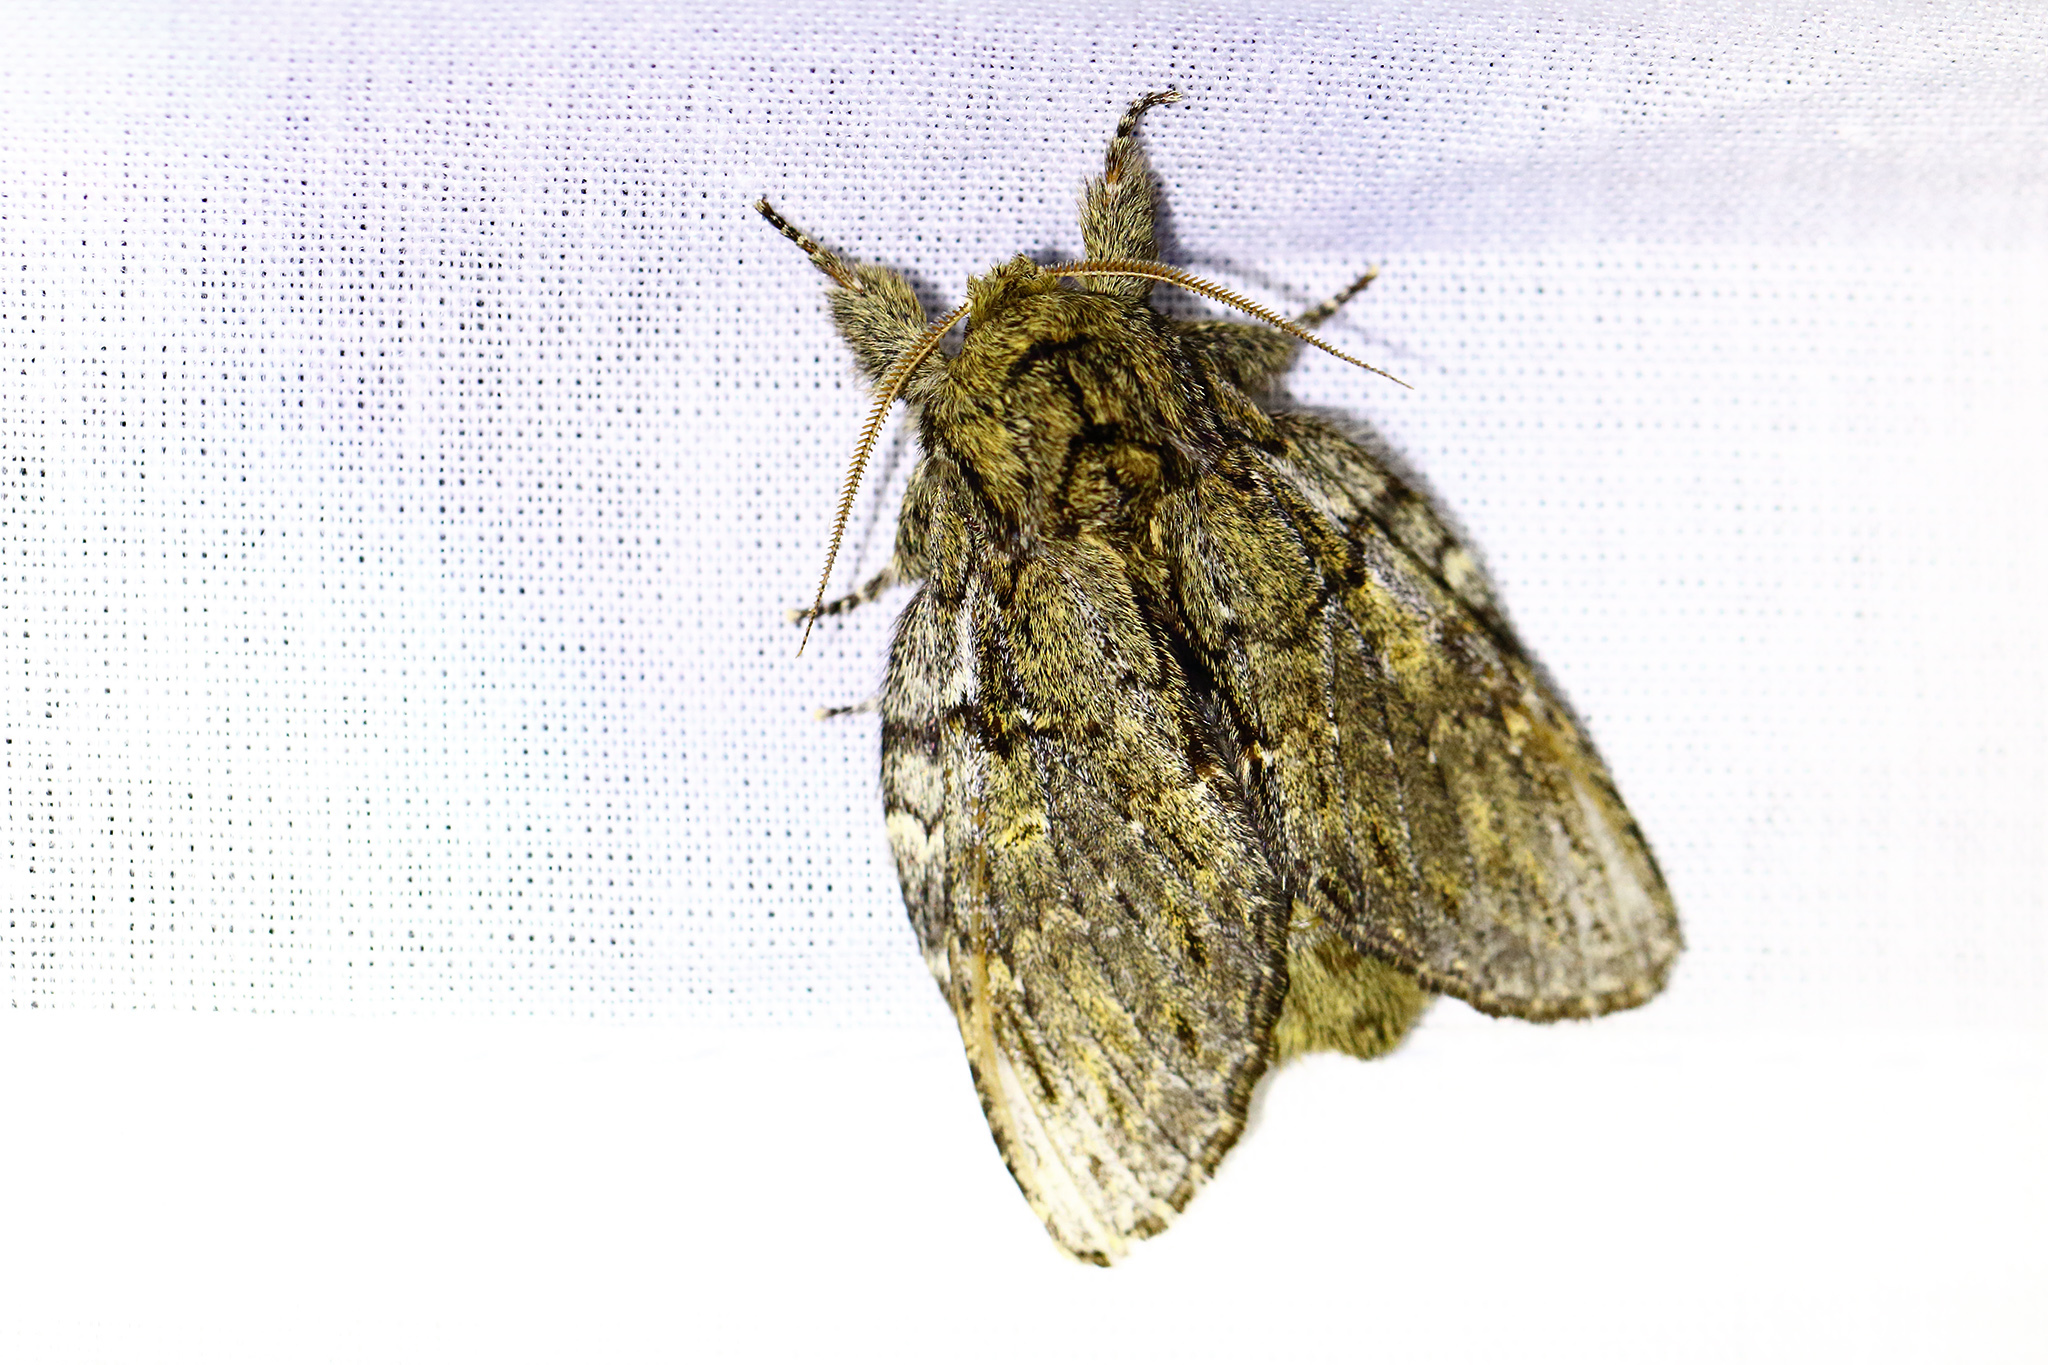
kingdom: Animalia
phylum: Arthropoda
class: Insecta
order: Lepidoptera
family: Notodontidae
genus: Peridea
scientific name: Peridea anceps
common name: Great prominent
